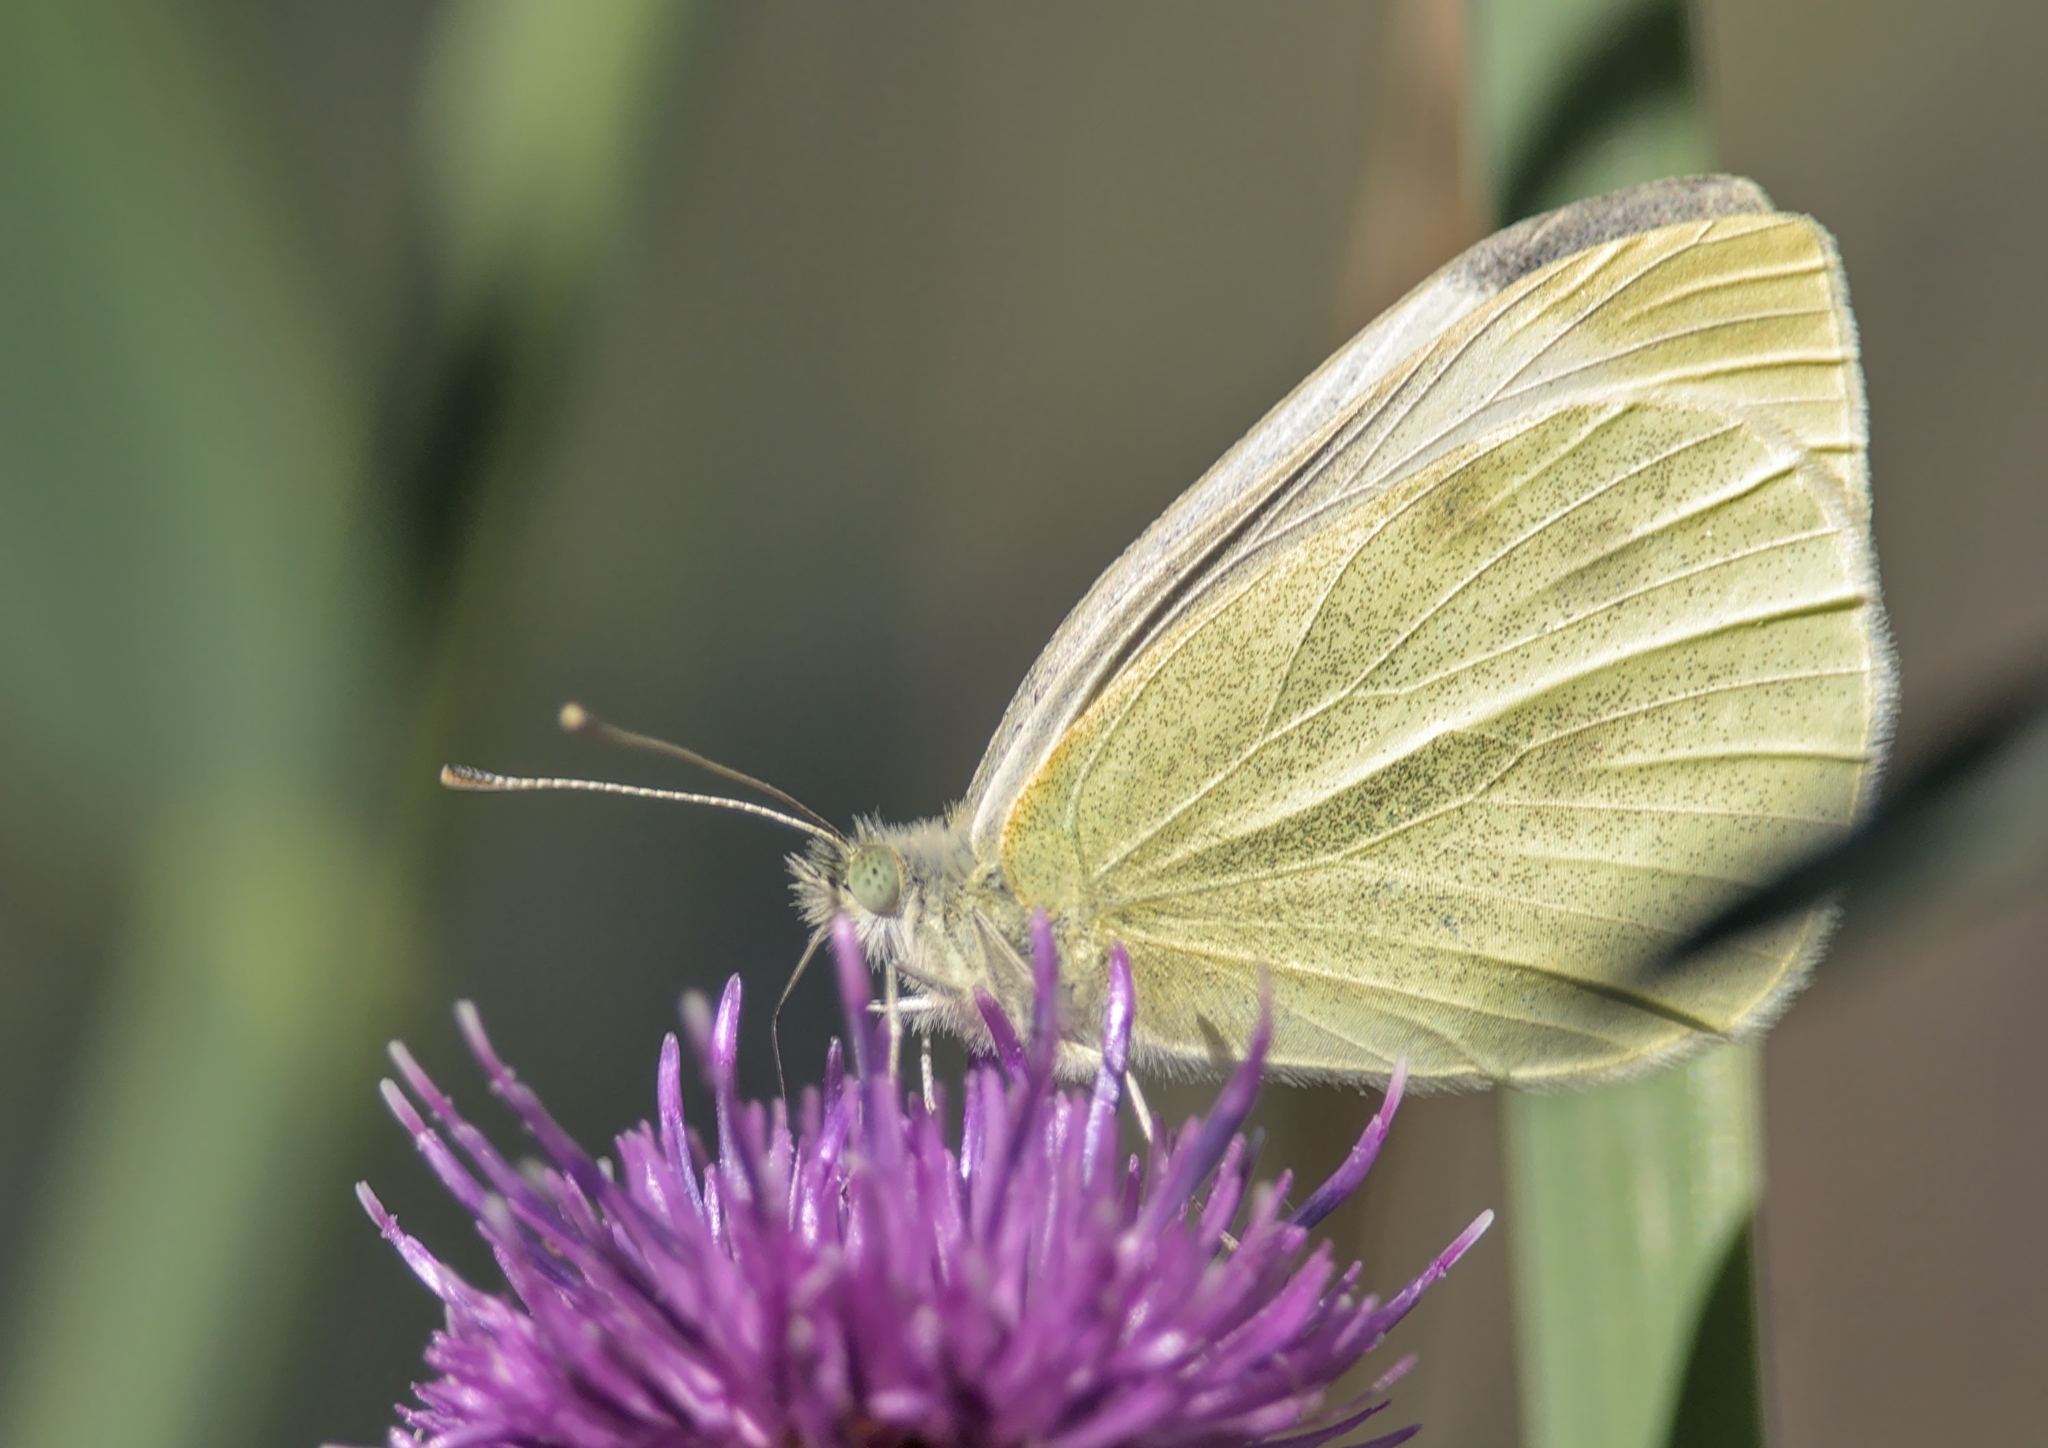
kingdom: Animalia
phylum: Arthropoda
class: Insecta
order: Lepidoptera
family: Pieridae
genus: Pieris
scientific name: Pieris rapae
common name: Small white
